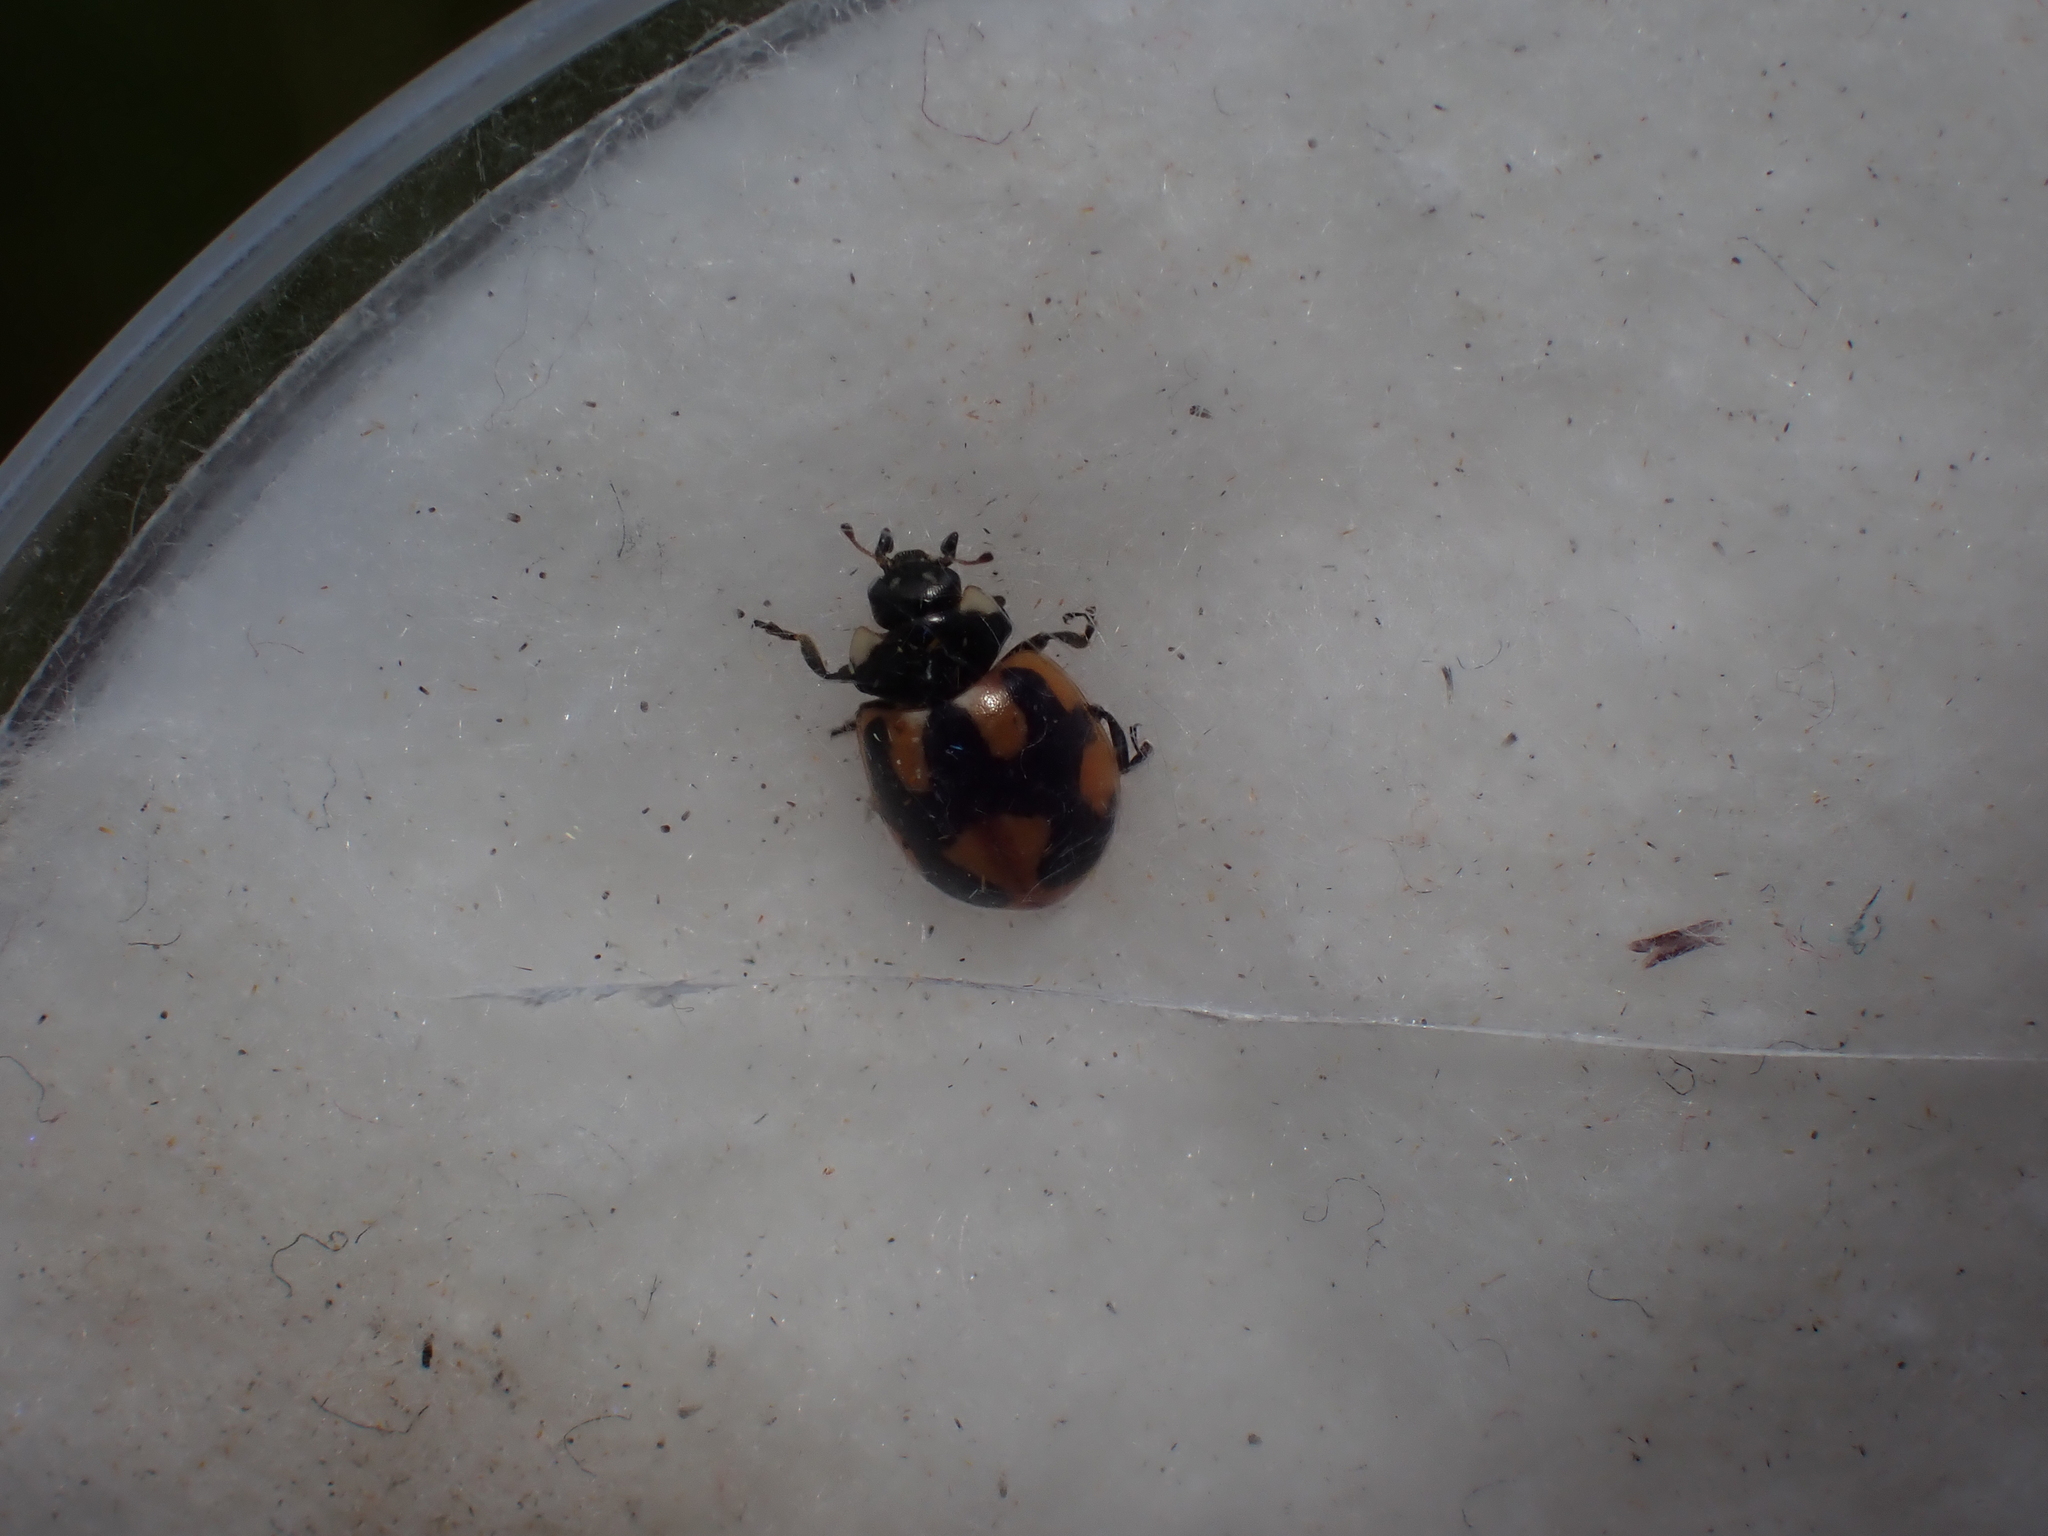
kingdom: Animalia
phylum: Arthropoda
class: Insecta
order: Coleoptera
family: Coccinellidae
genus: Coccinella
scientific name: Coccinella hieroglyphica
